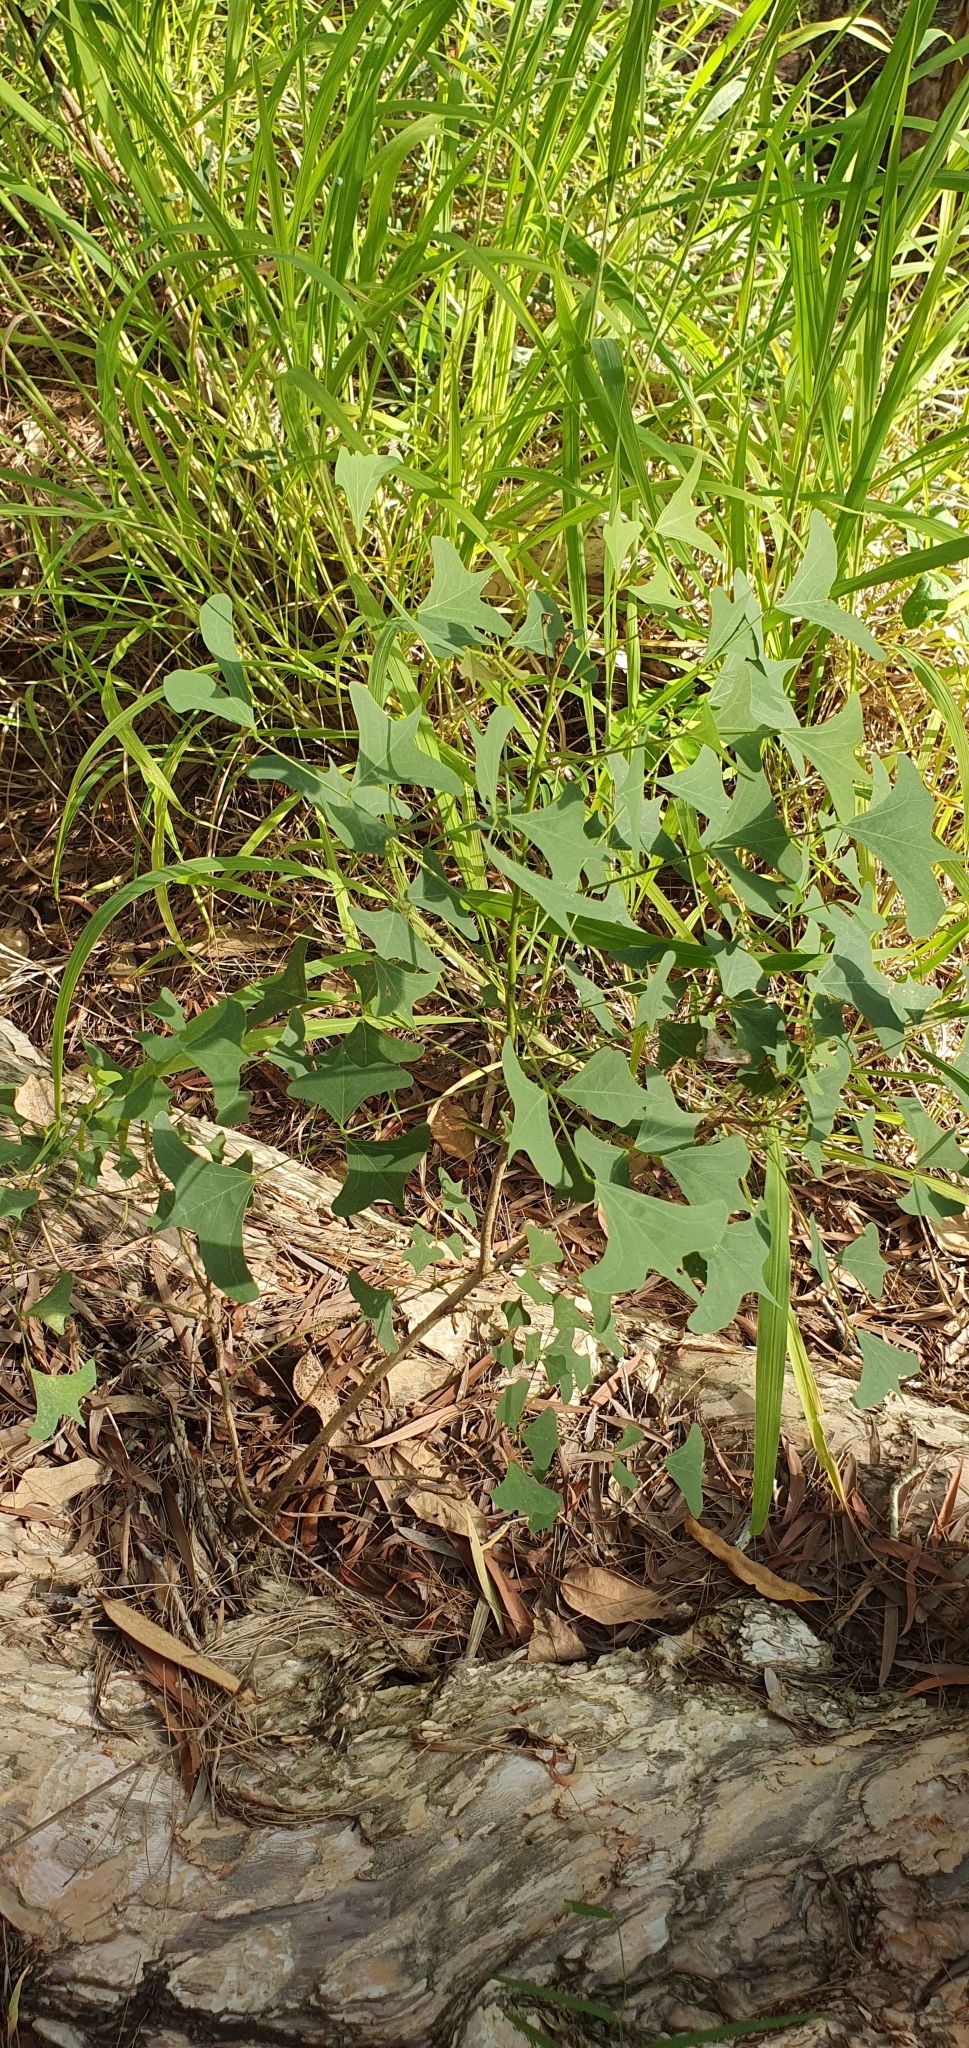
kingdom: Plantae
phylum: Tracheophyta
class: Magnoliopsida
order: Fabales
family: Fabaceae
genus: Erythrina
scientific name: Erythrina vespertilio
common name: Bat-wing coral tree
